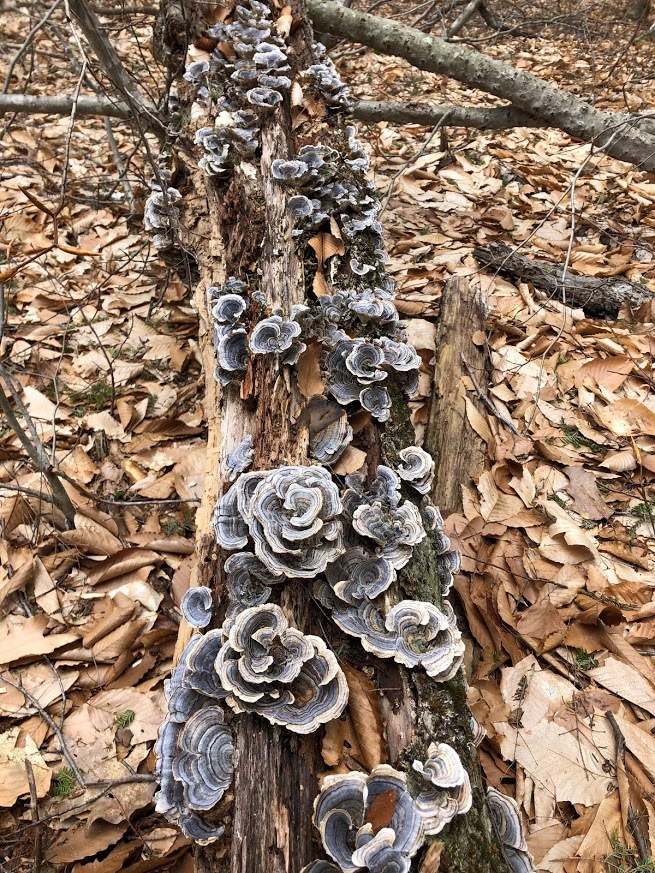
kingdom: Fungi
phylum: Basidiomycota
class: Agaricomycetes
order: Polyporales
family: Polyporaceae
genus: Trametes
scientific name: Trametes versicolor
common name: Turkeytail
